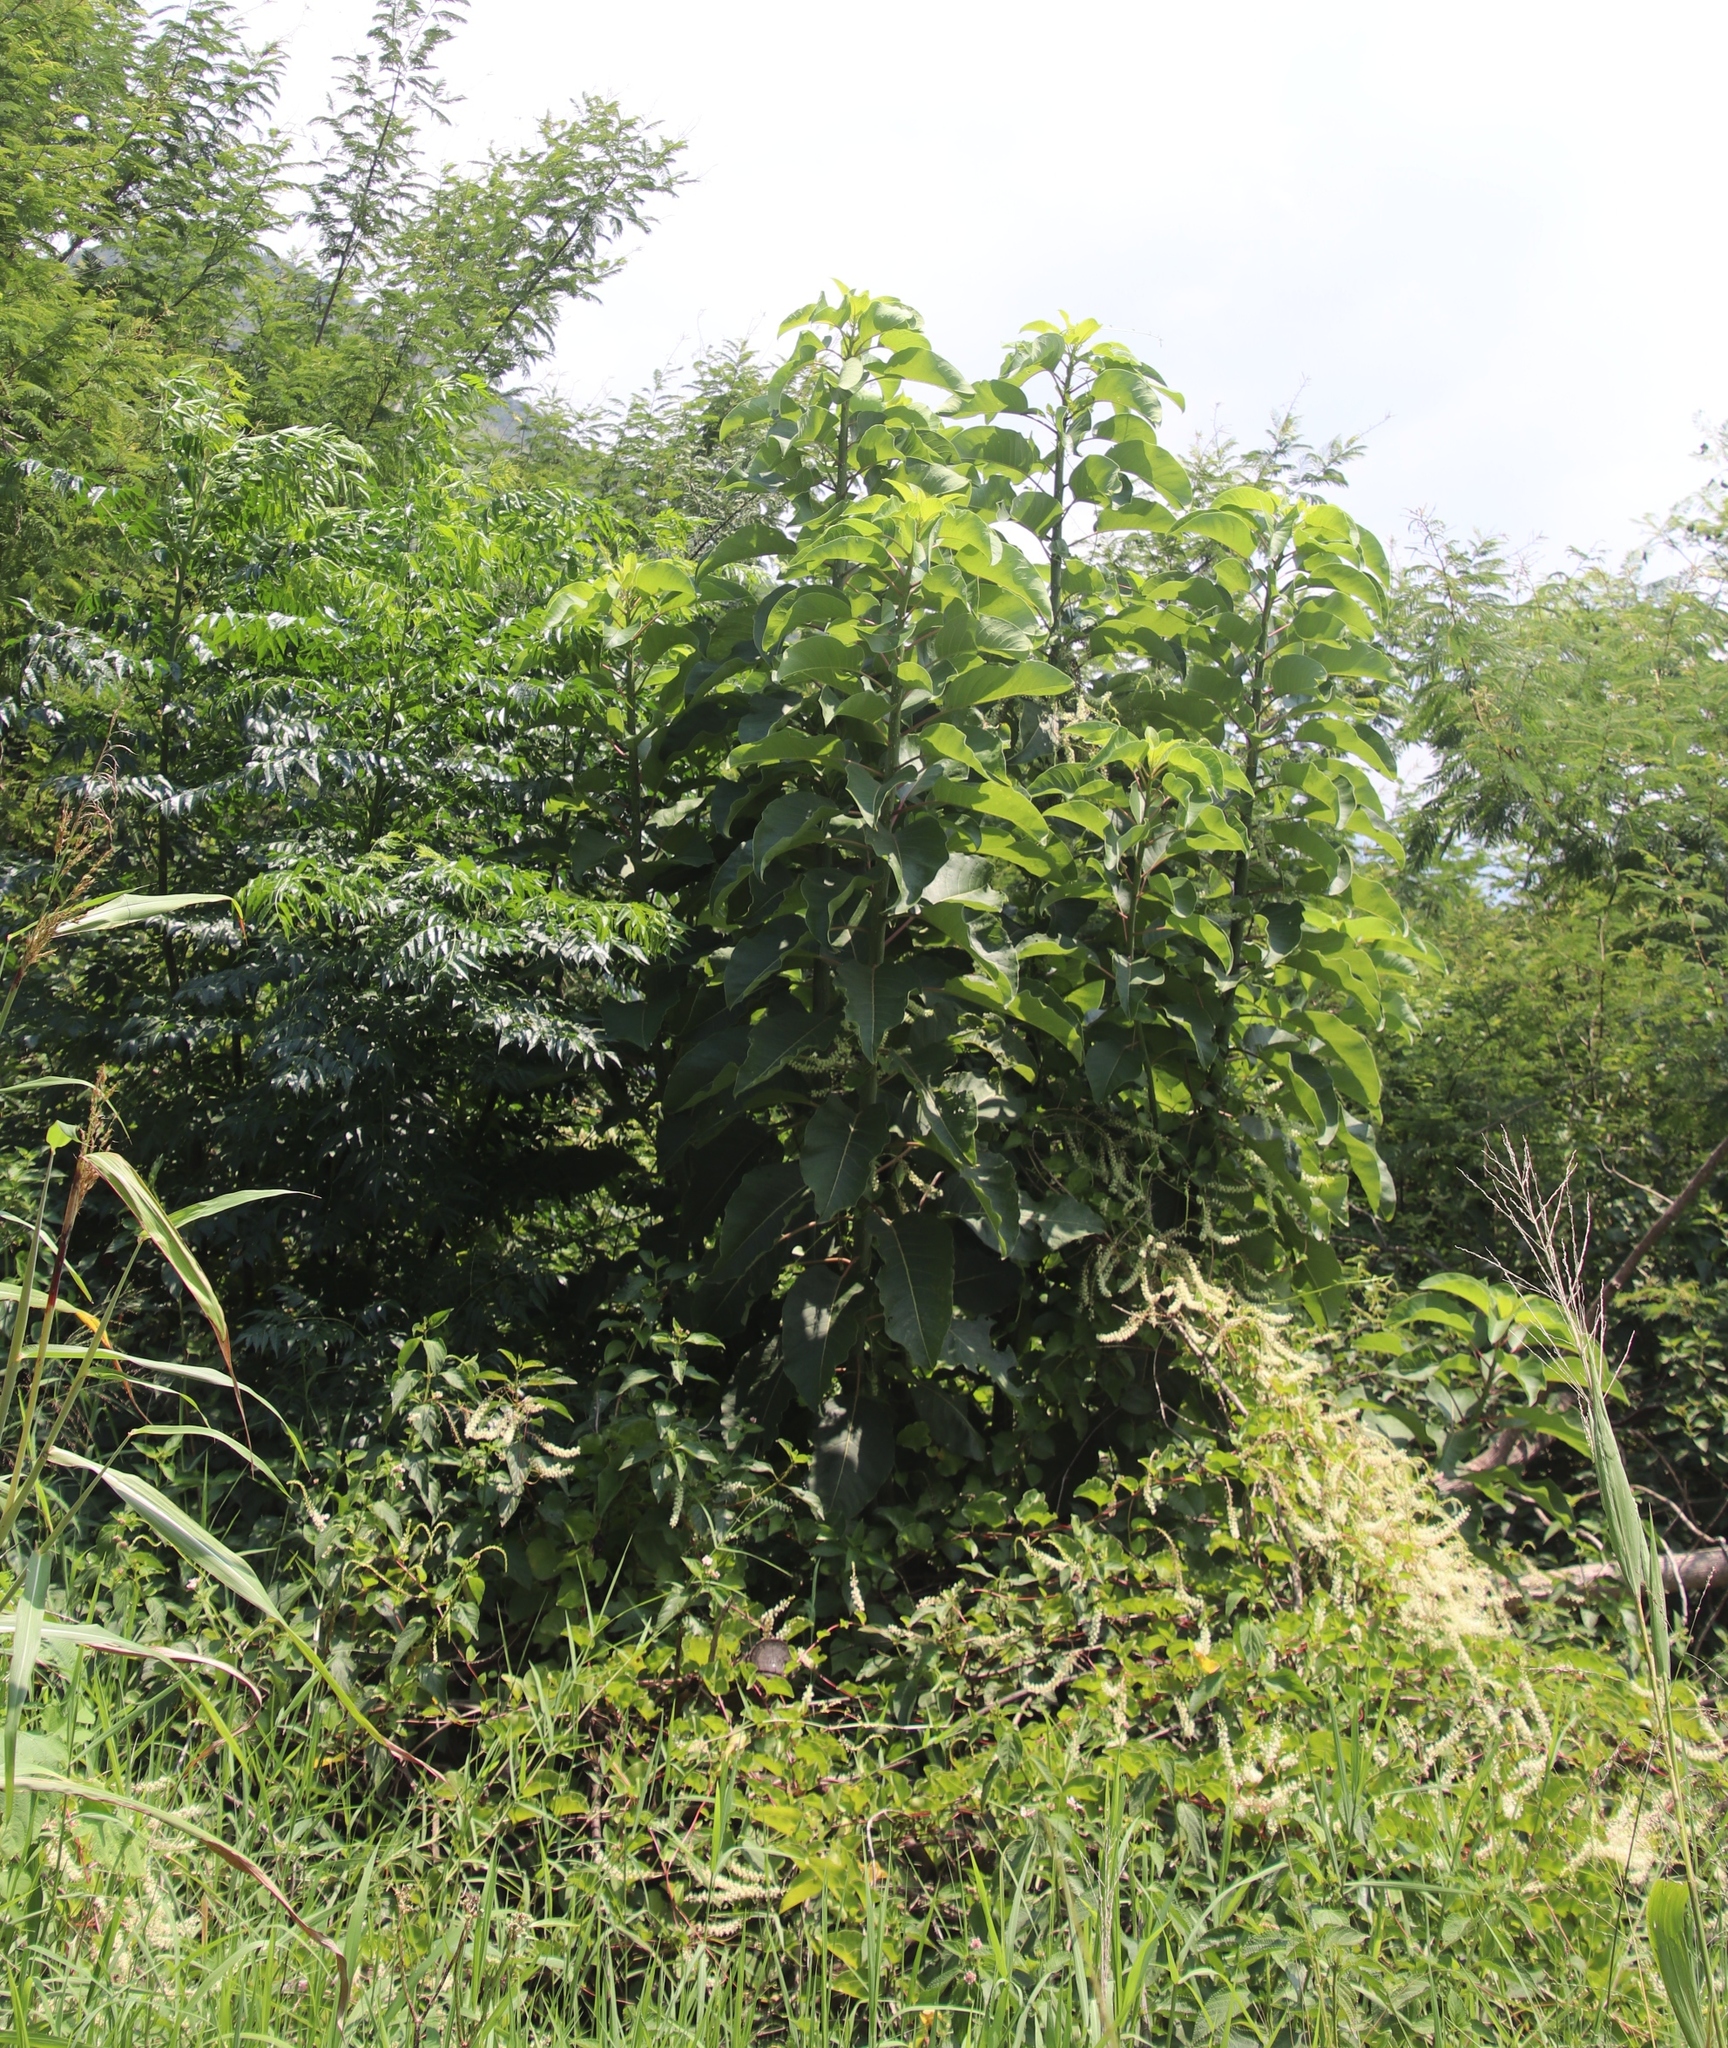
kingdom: Plantae
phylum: Tracheophyta
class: Magnoliopsida
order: Caryophyllales
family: Basellaceae
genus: Anredera
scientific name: Anredera cordifolia
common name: Heartleaf madeiravine
